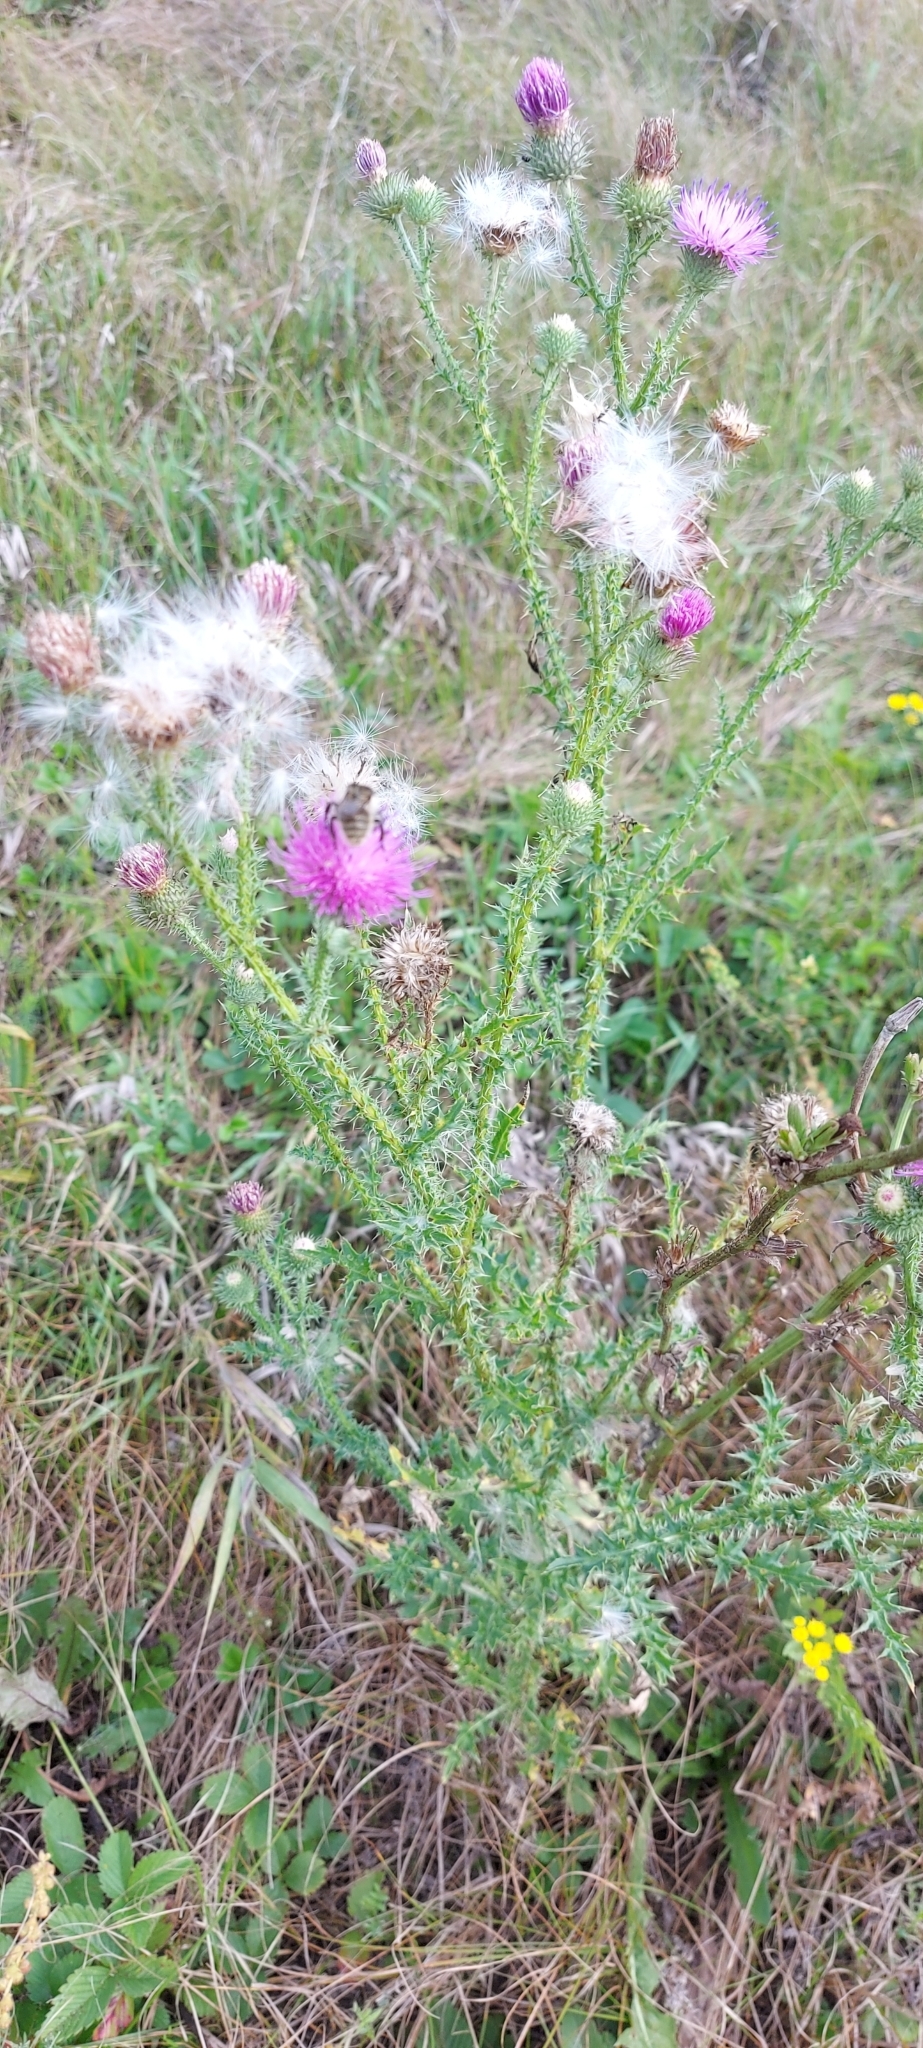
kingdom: Plantae
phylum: Tracheophyta
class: Magnoliopsida
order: Asterales
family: Asteraceae
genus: Carduus
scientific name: Carduus acanthoides
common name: Plumeless thistle
